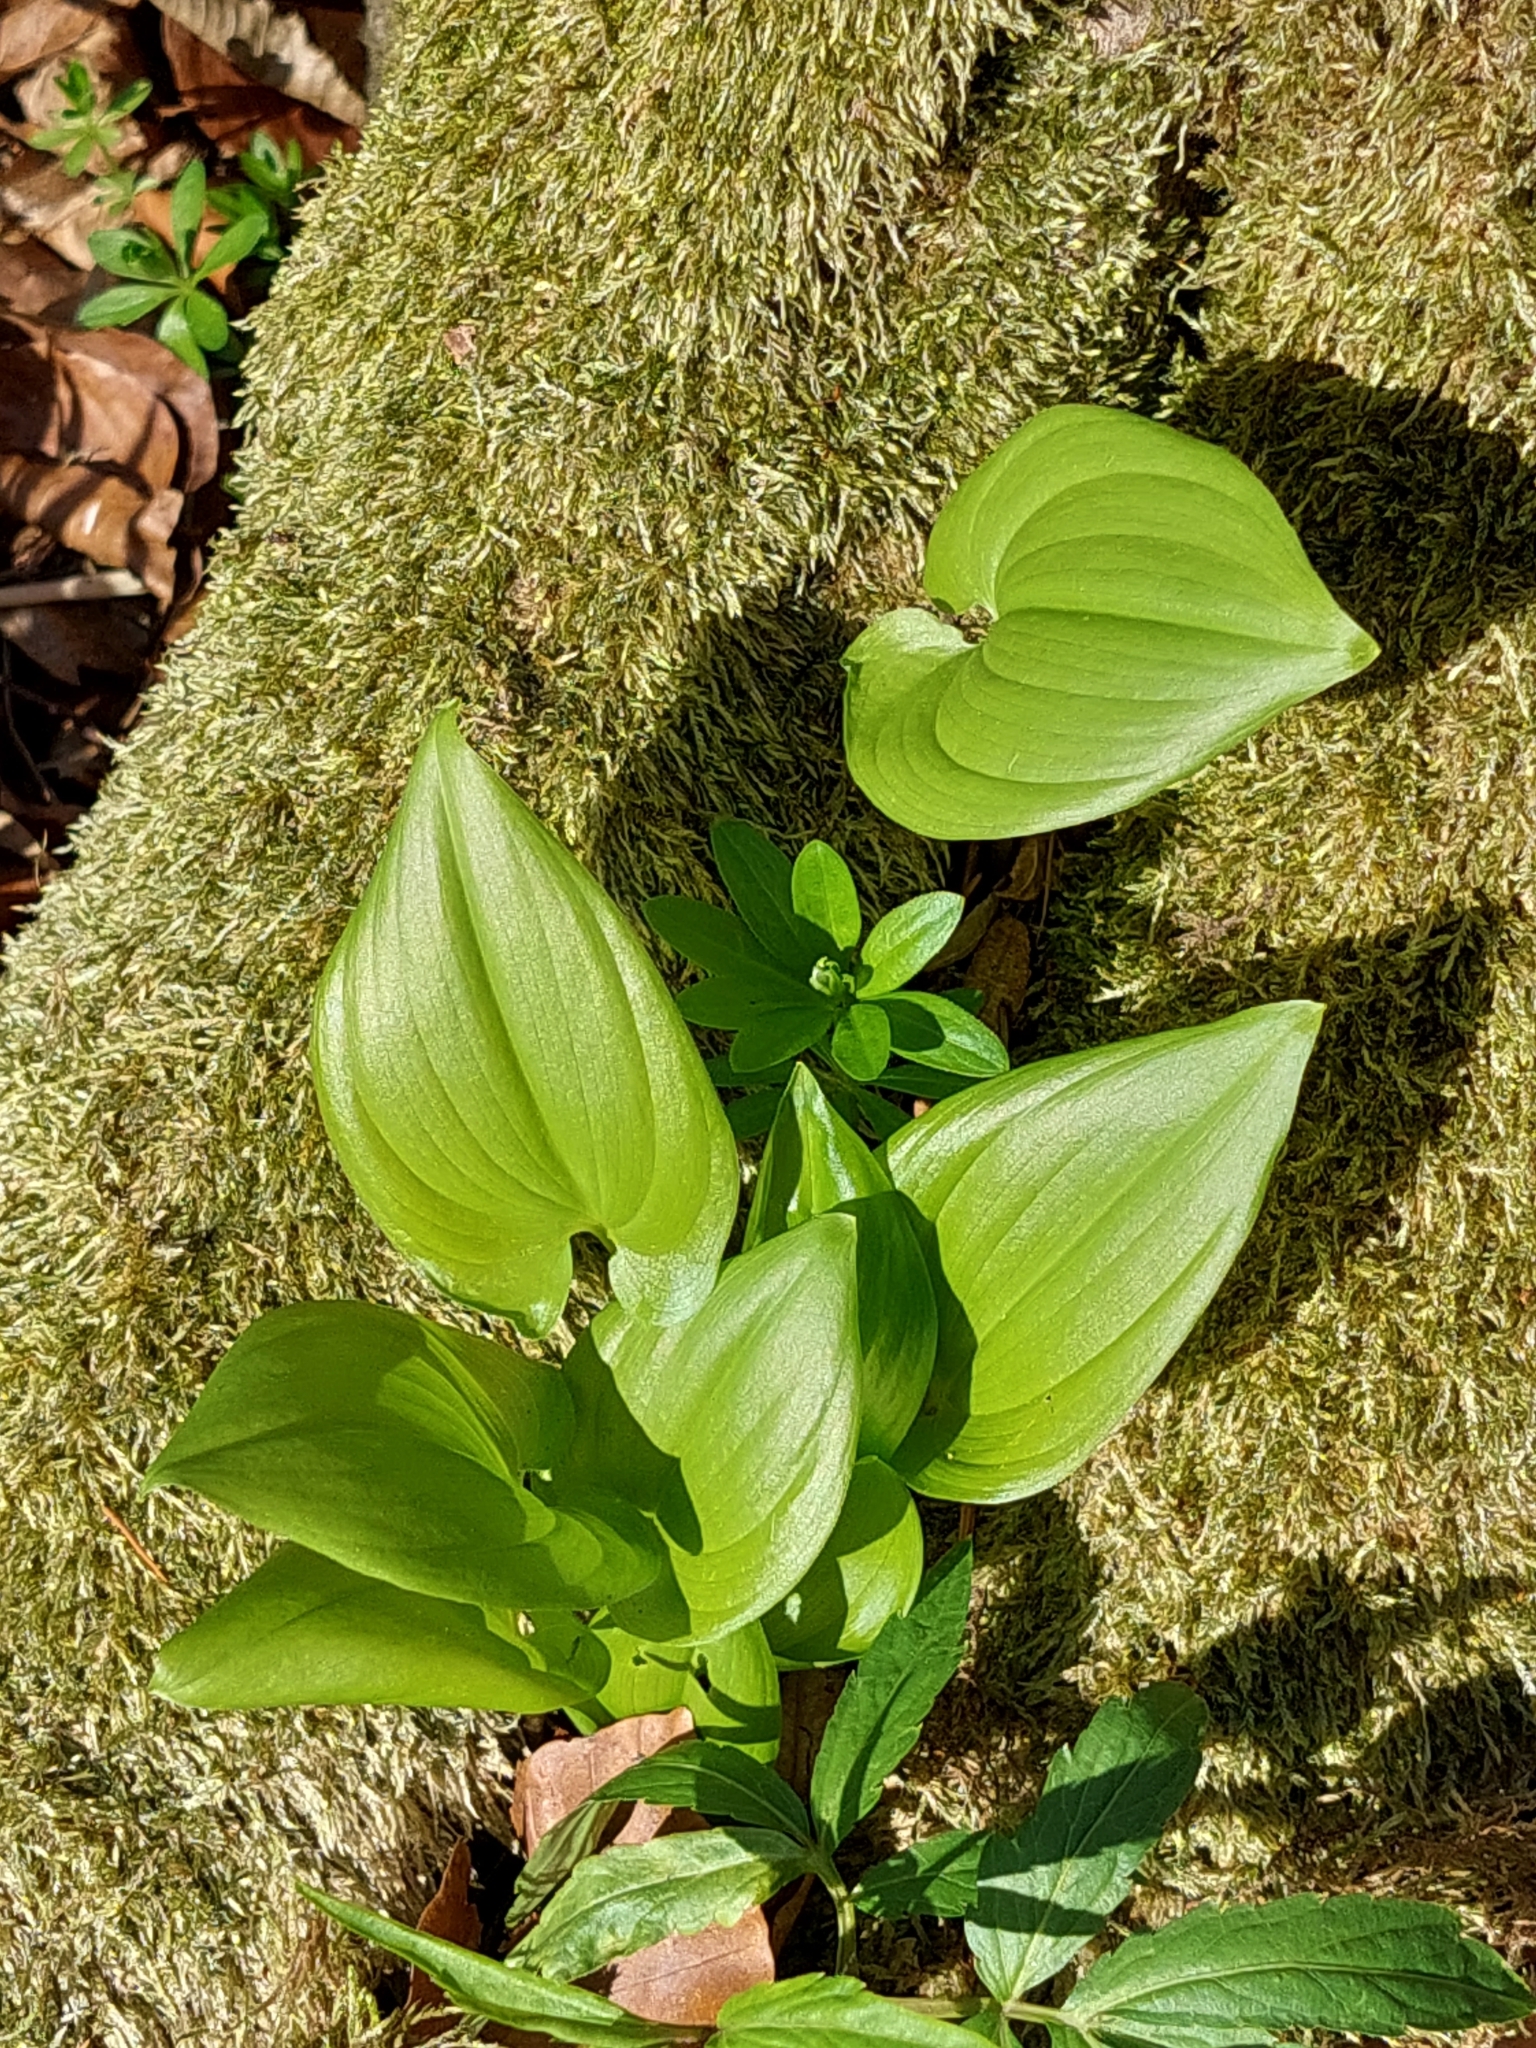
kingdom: Plantae
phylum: Tracheophyta
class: Liliopsida
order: Asparagales
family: Asparagaceae
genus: Maianthemum
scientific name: Maianthemum bifolium
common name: May lily
